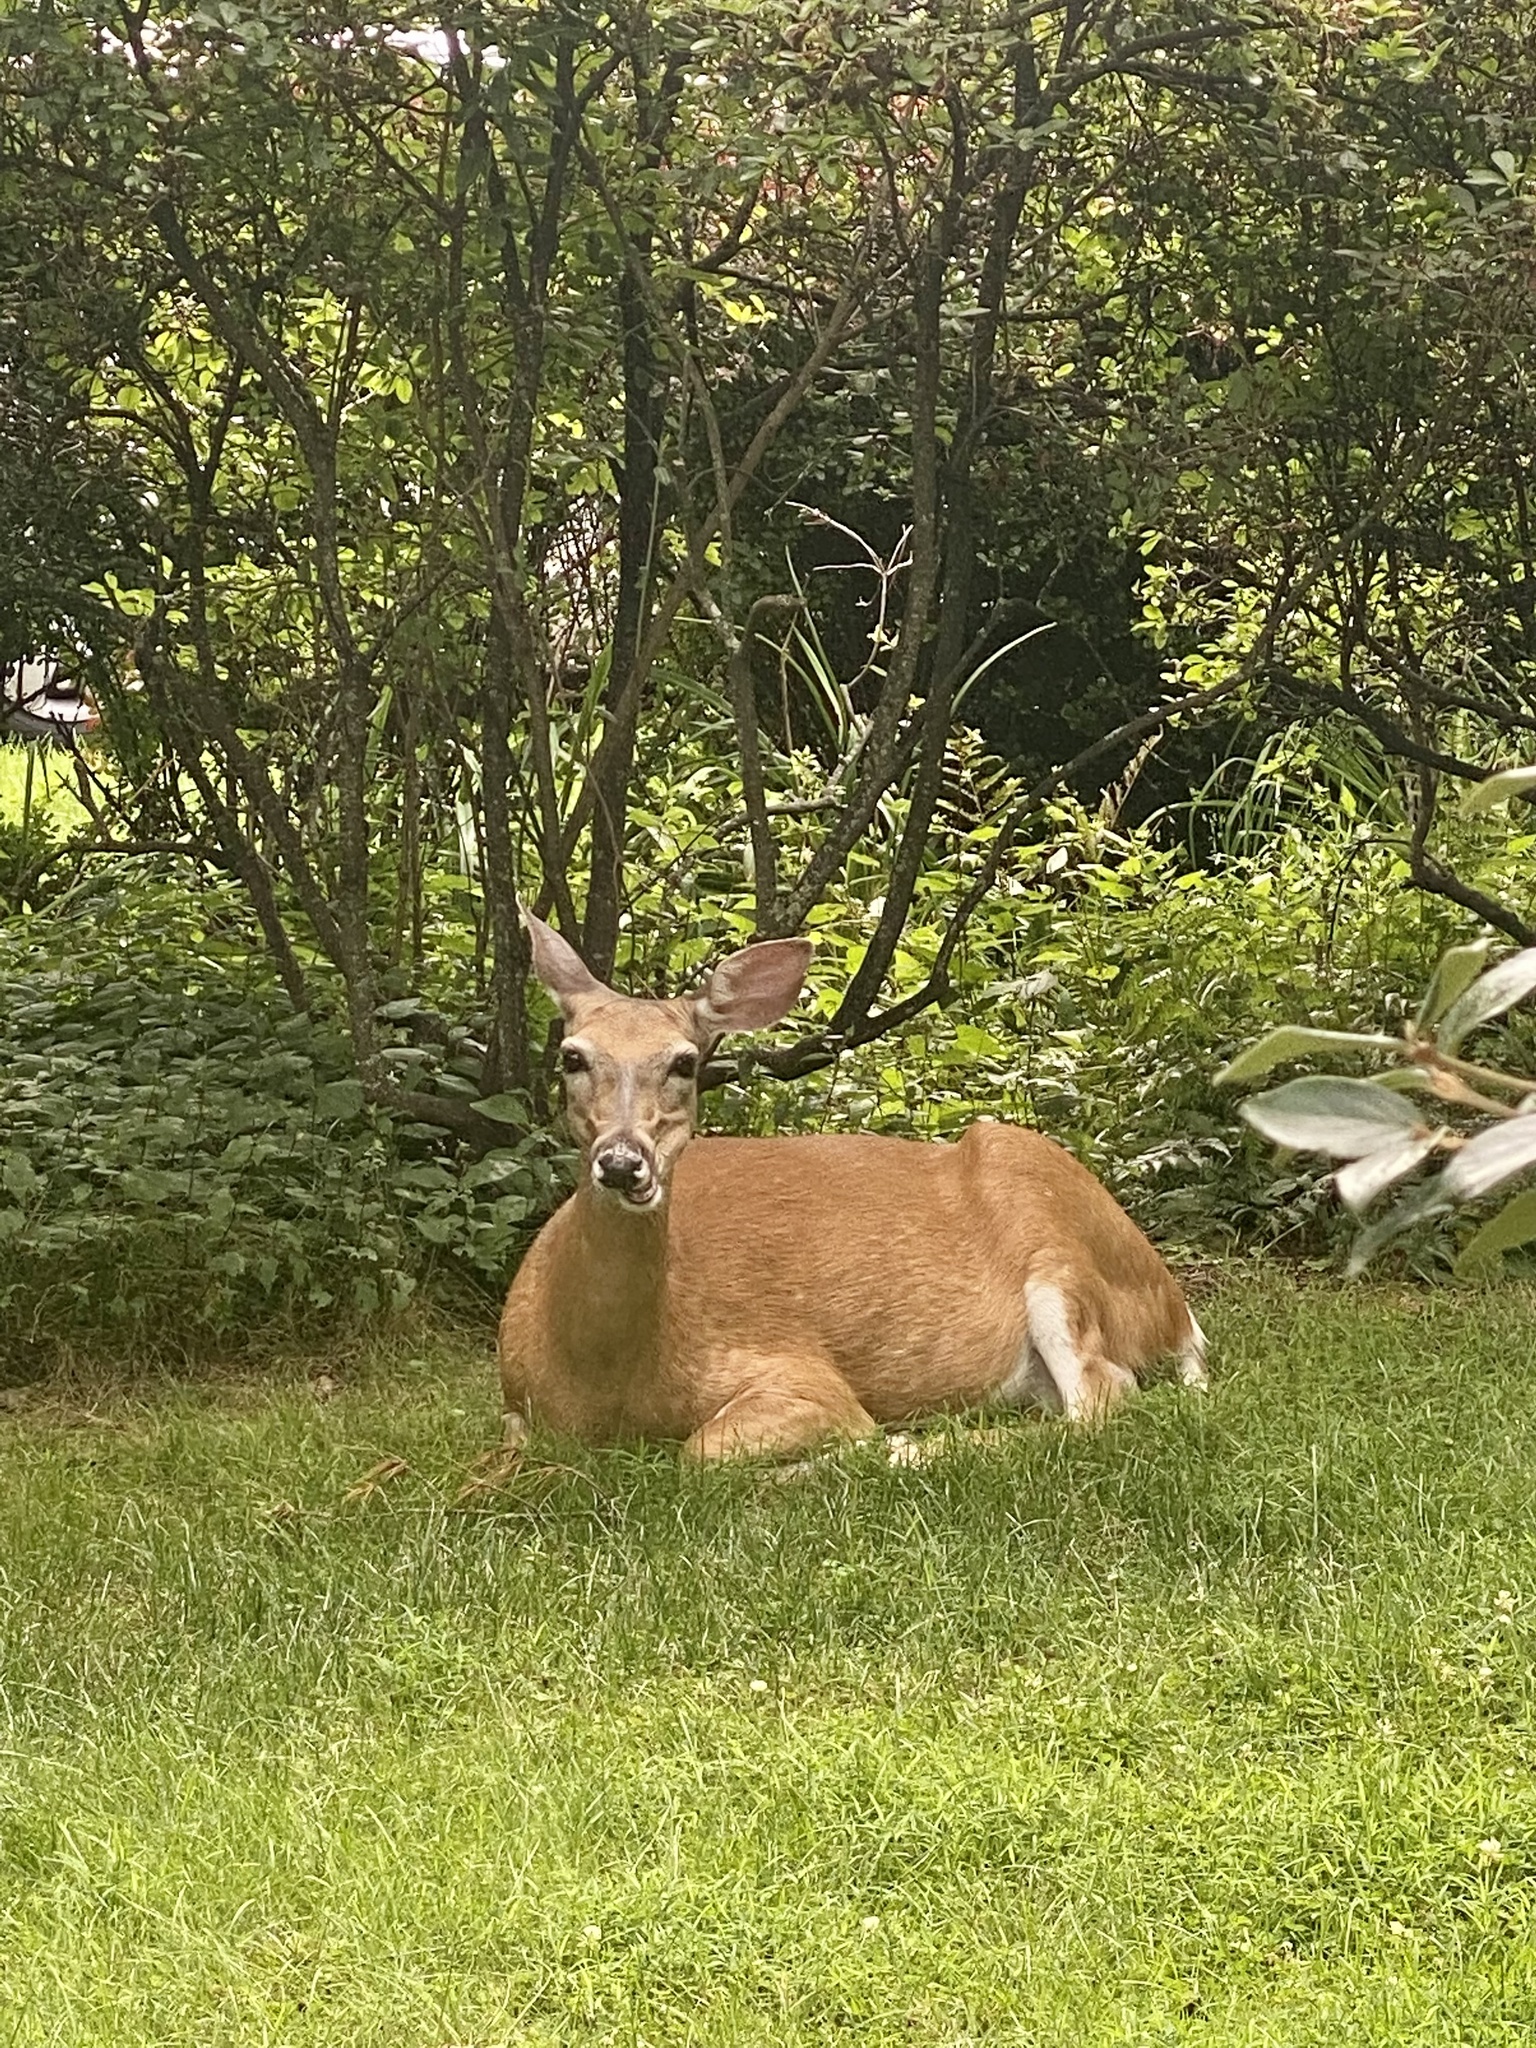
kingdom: Animalia
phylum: Chordata
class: Mammalia
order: Artiodactyla
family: Cervidae
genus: Odocoileus
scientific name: Odocoileus virginianus
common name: White-tailed deer
